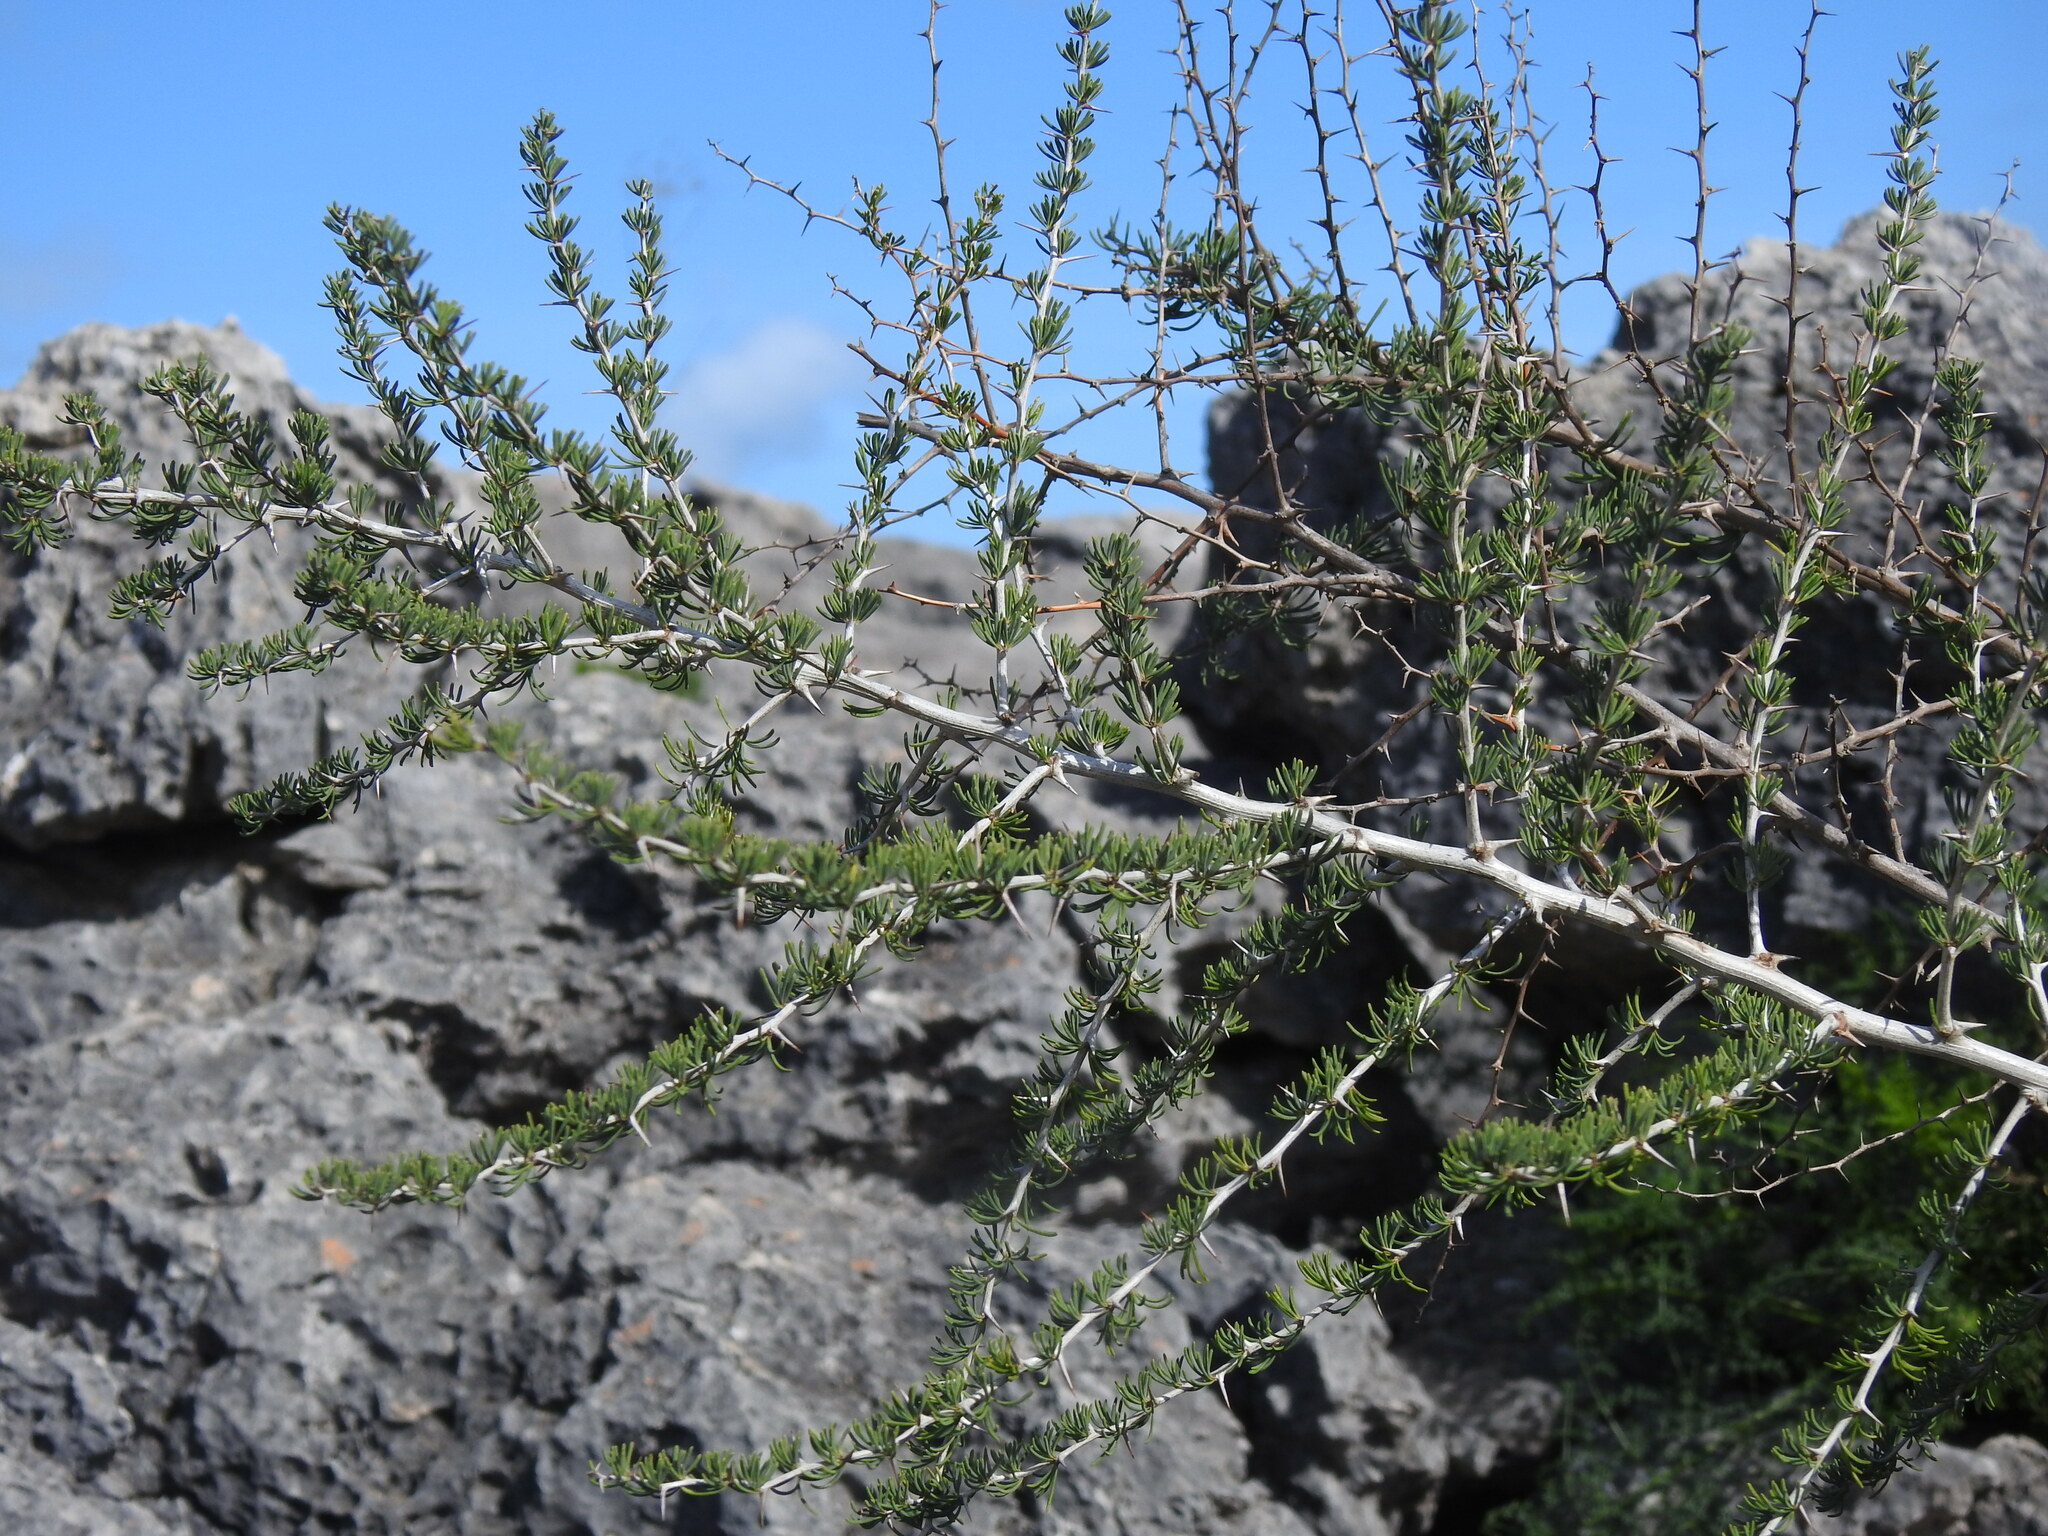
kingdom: Plantae
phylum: Tracheophyta
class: Liliopsida
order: Asparagales
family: Asparagaceae
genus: Asparagus
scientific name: Asparagus albus
